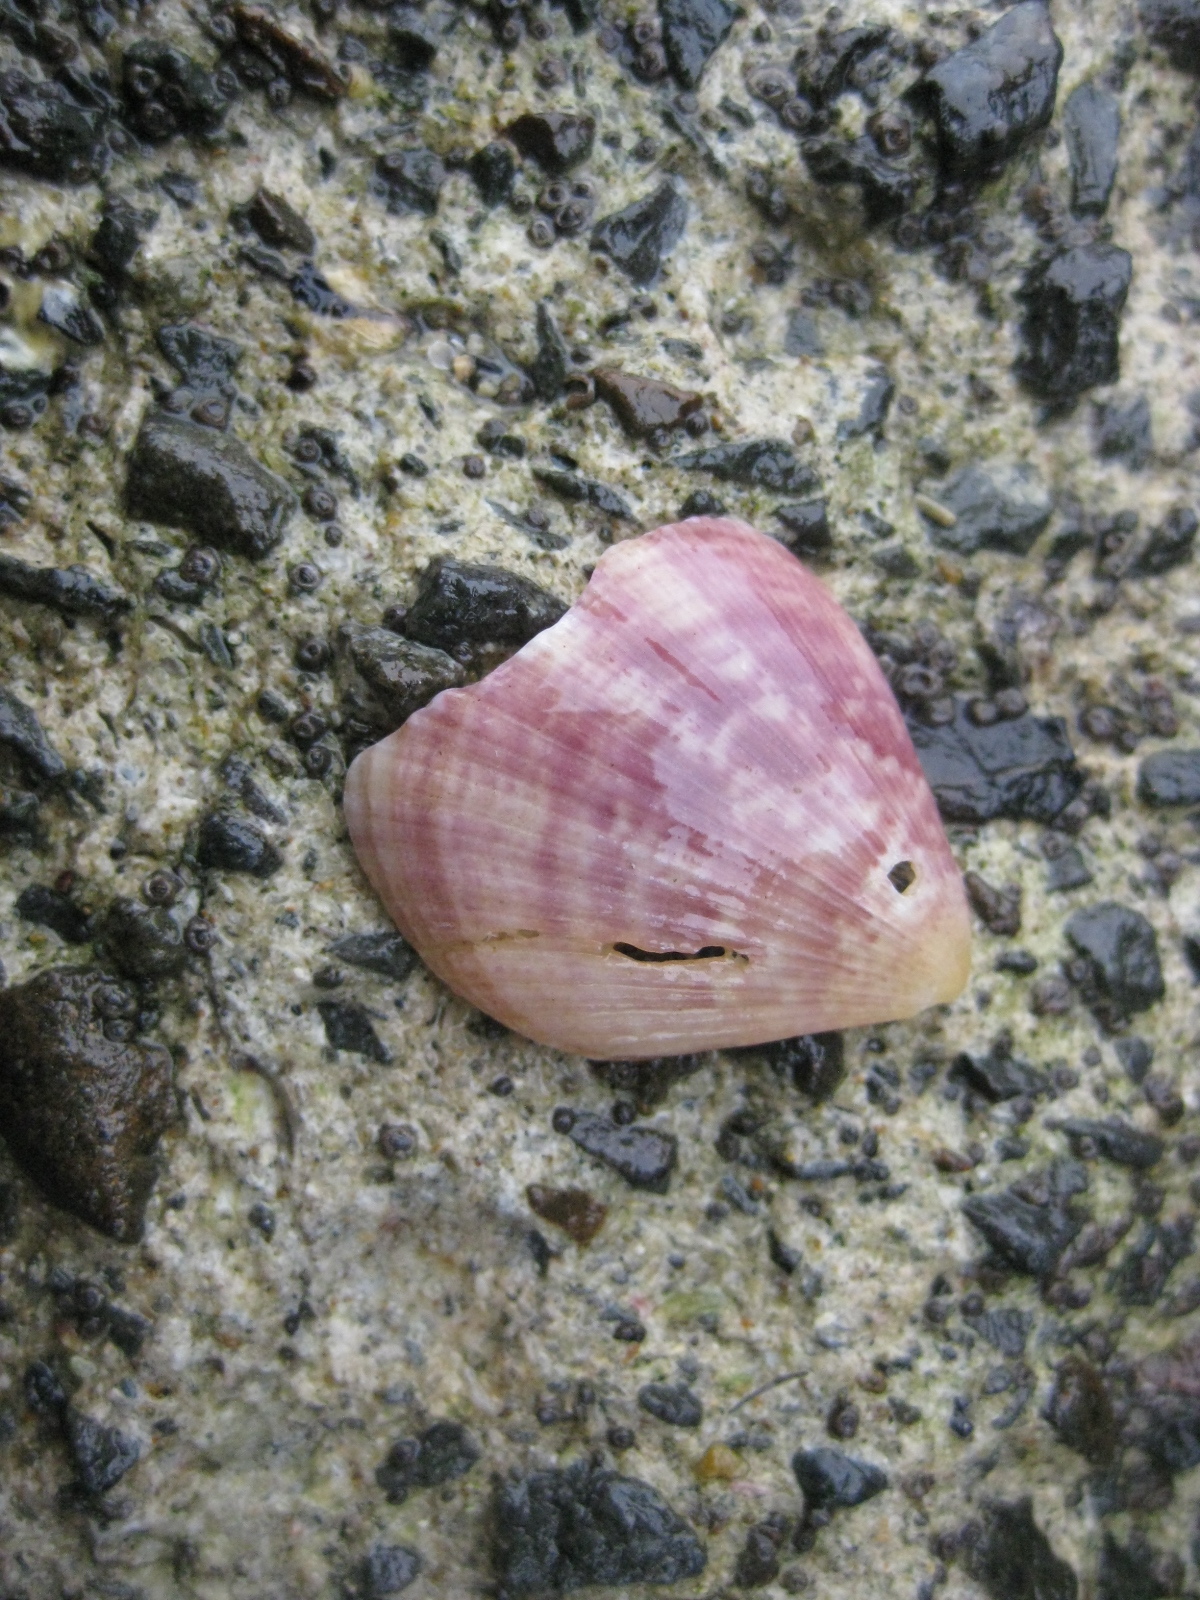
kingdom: Animalia
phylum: Mollusca
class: Bivalvia
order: Pectinida
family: Pectinidae
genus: Talochlamys
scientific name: Talochlamys zelandiae
